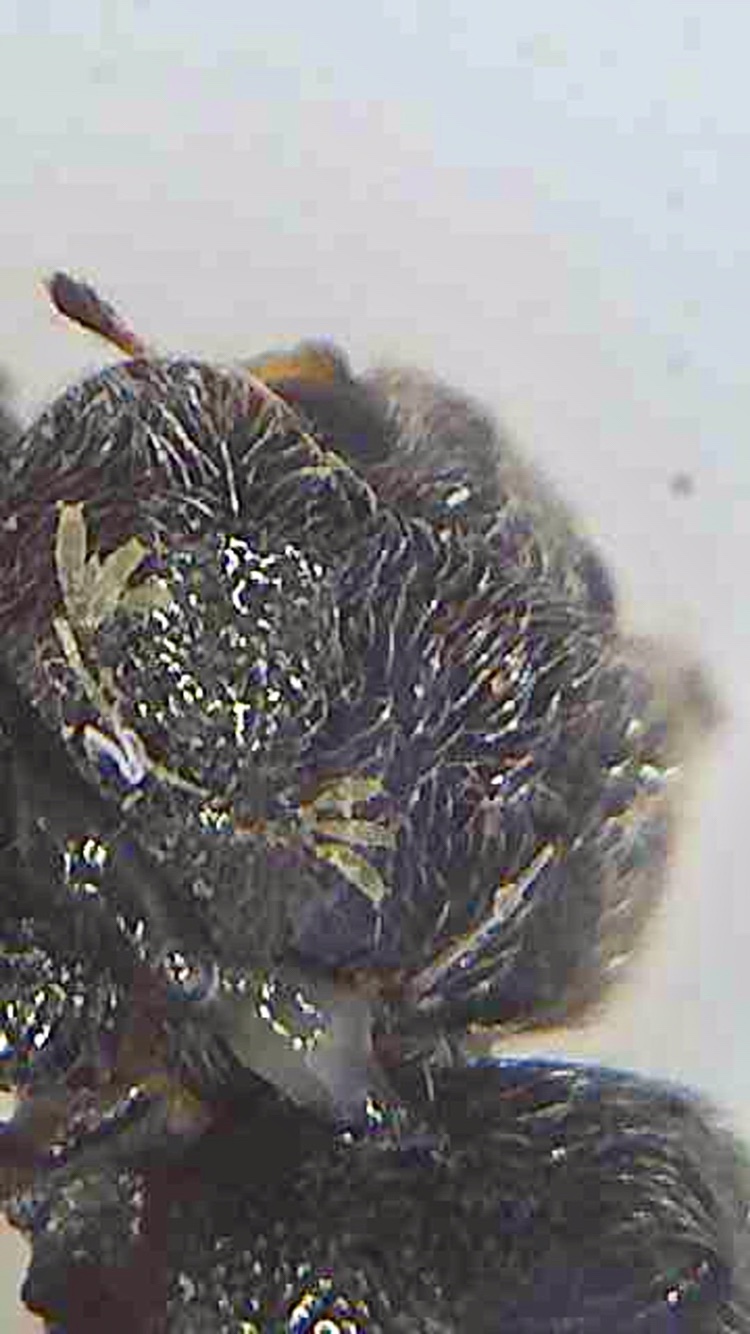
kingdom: Fungi
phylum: Ascomycota
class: Laboulbeniomycetes
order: Laboulbeniales
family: Laboulbeniaceae
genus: Hesperomyces
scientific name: Hesperomyces coccinelloides
